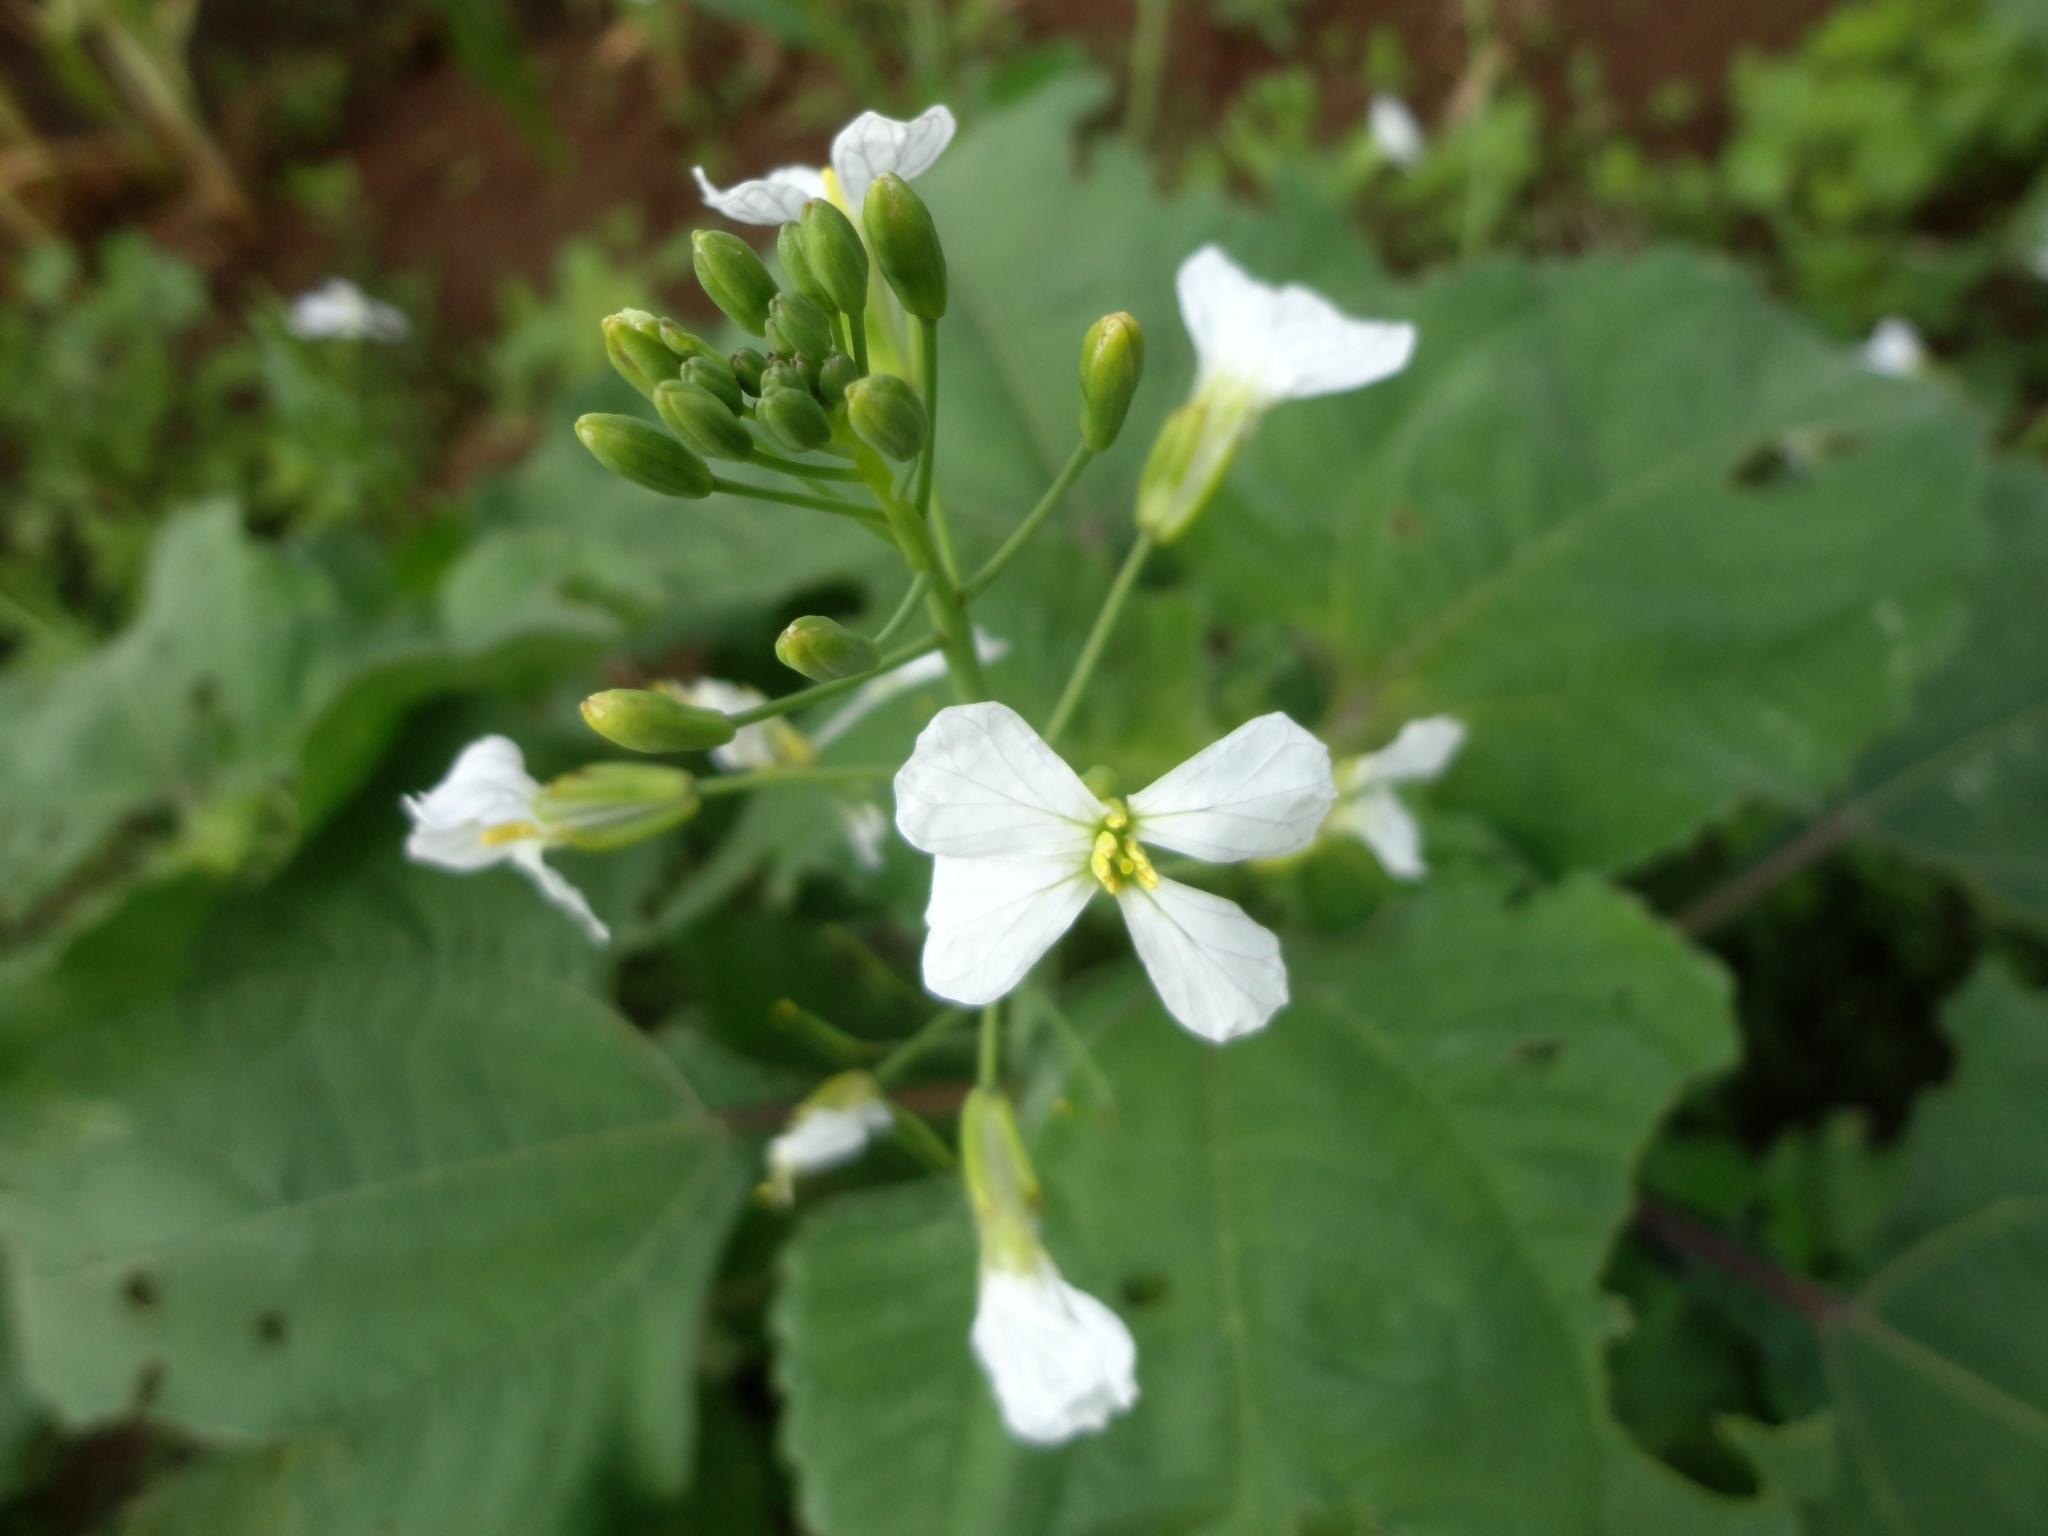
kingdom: Plantae
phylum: Tracheophyta
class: Magnoliopsida
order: Brassicales
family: Brassicaceae
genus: Raphanus
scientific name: Raphanus raphanistrum
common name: Wild radish
